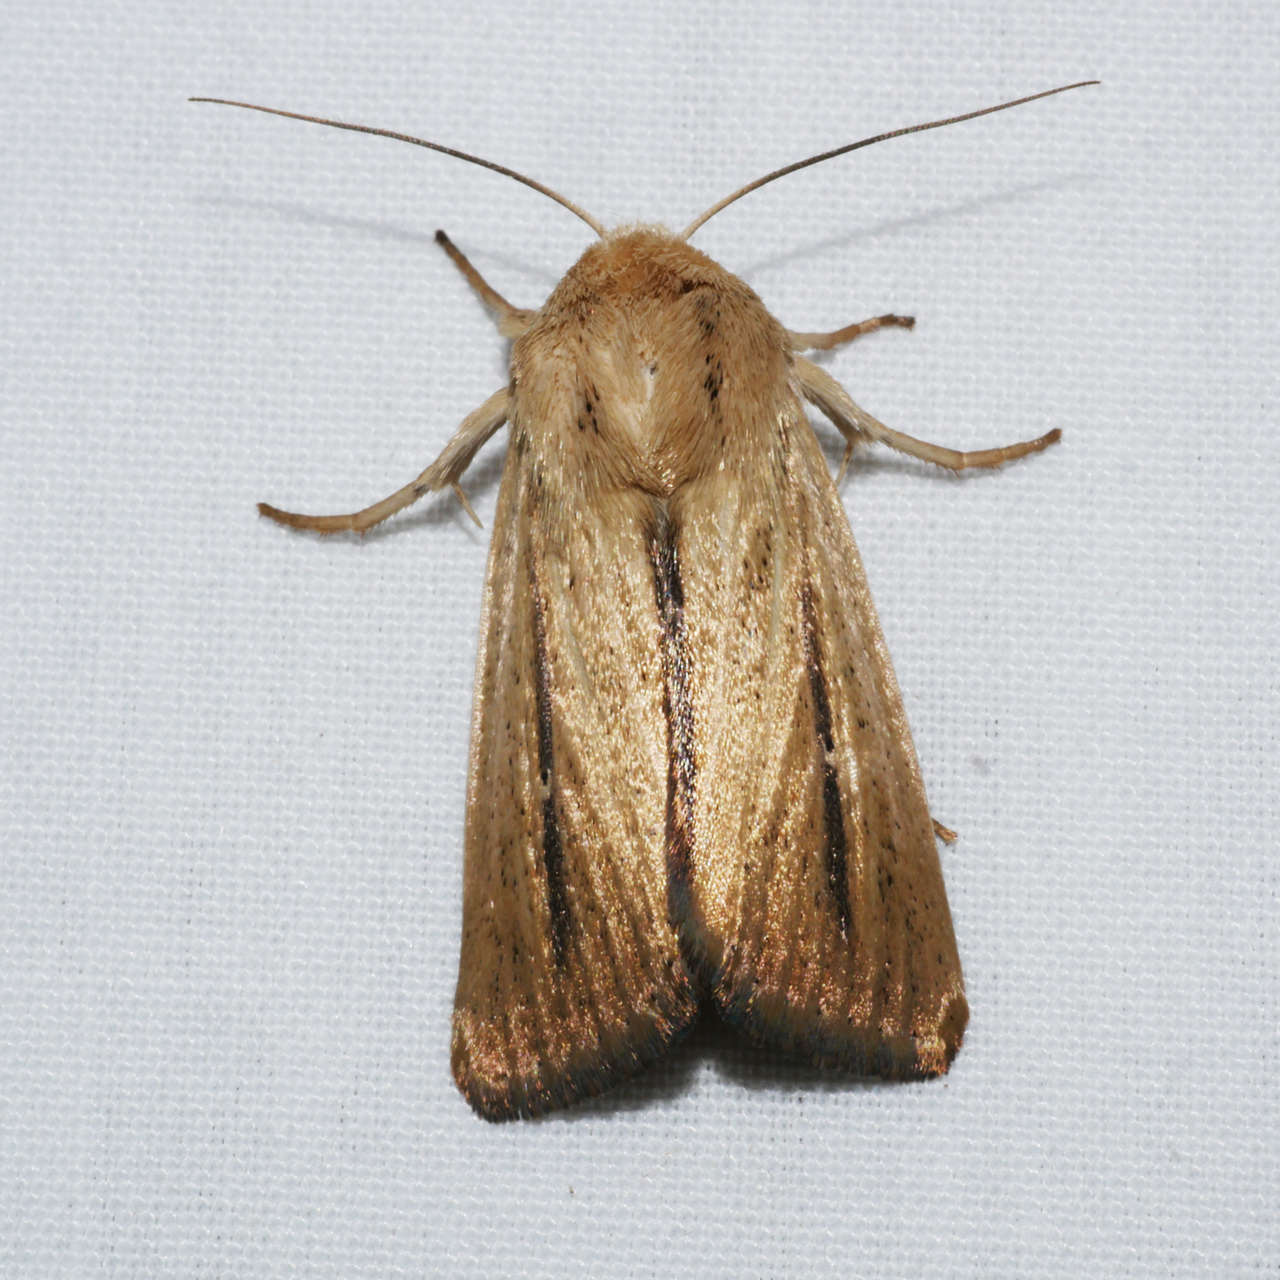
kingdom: Animalia
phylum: Arthropoda
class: Insecta
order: Lepidoptera
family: Noctuidae
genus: Leucania
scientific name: Leucania diatrecta
